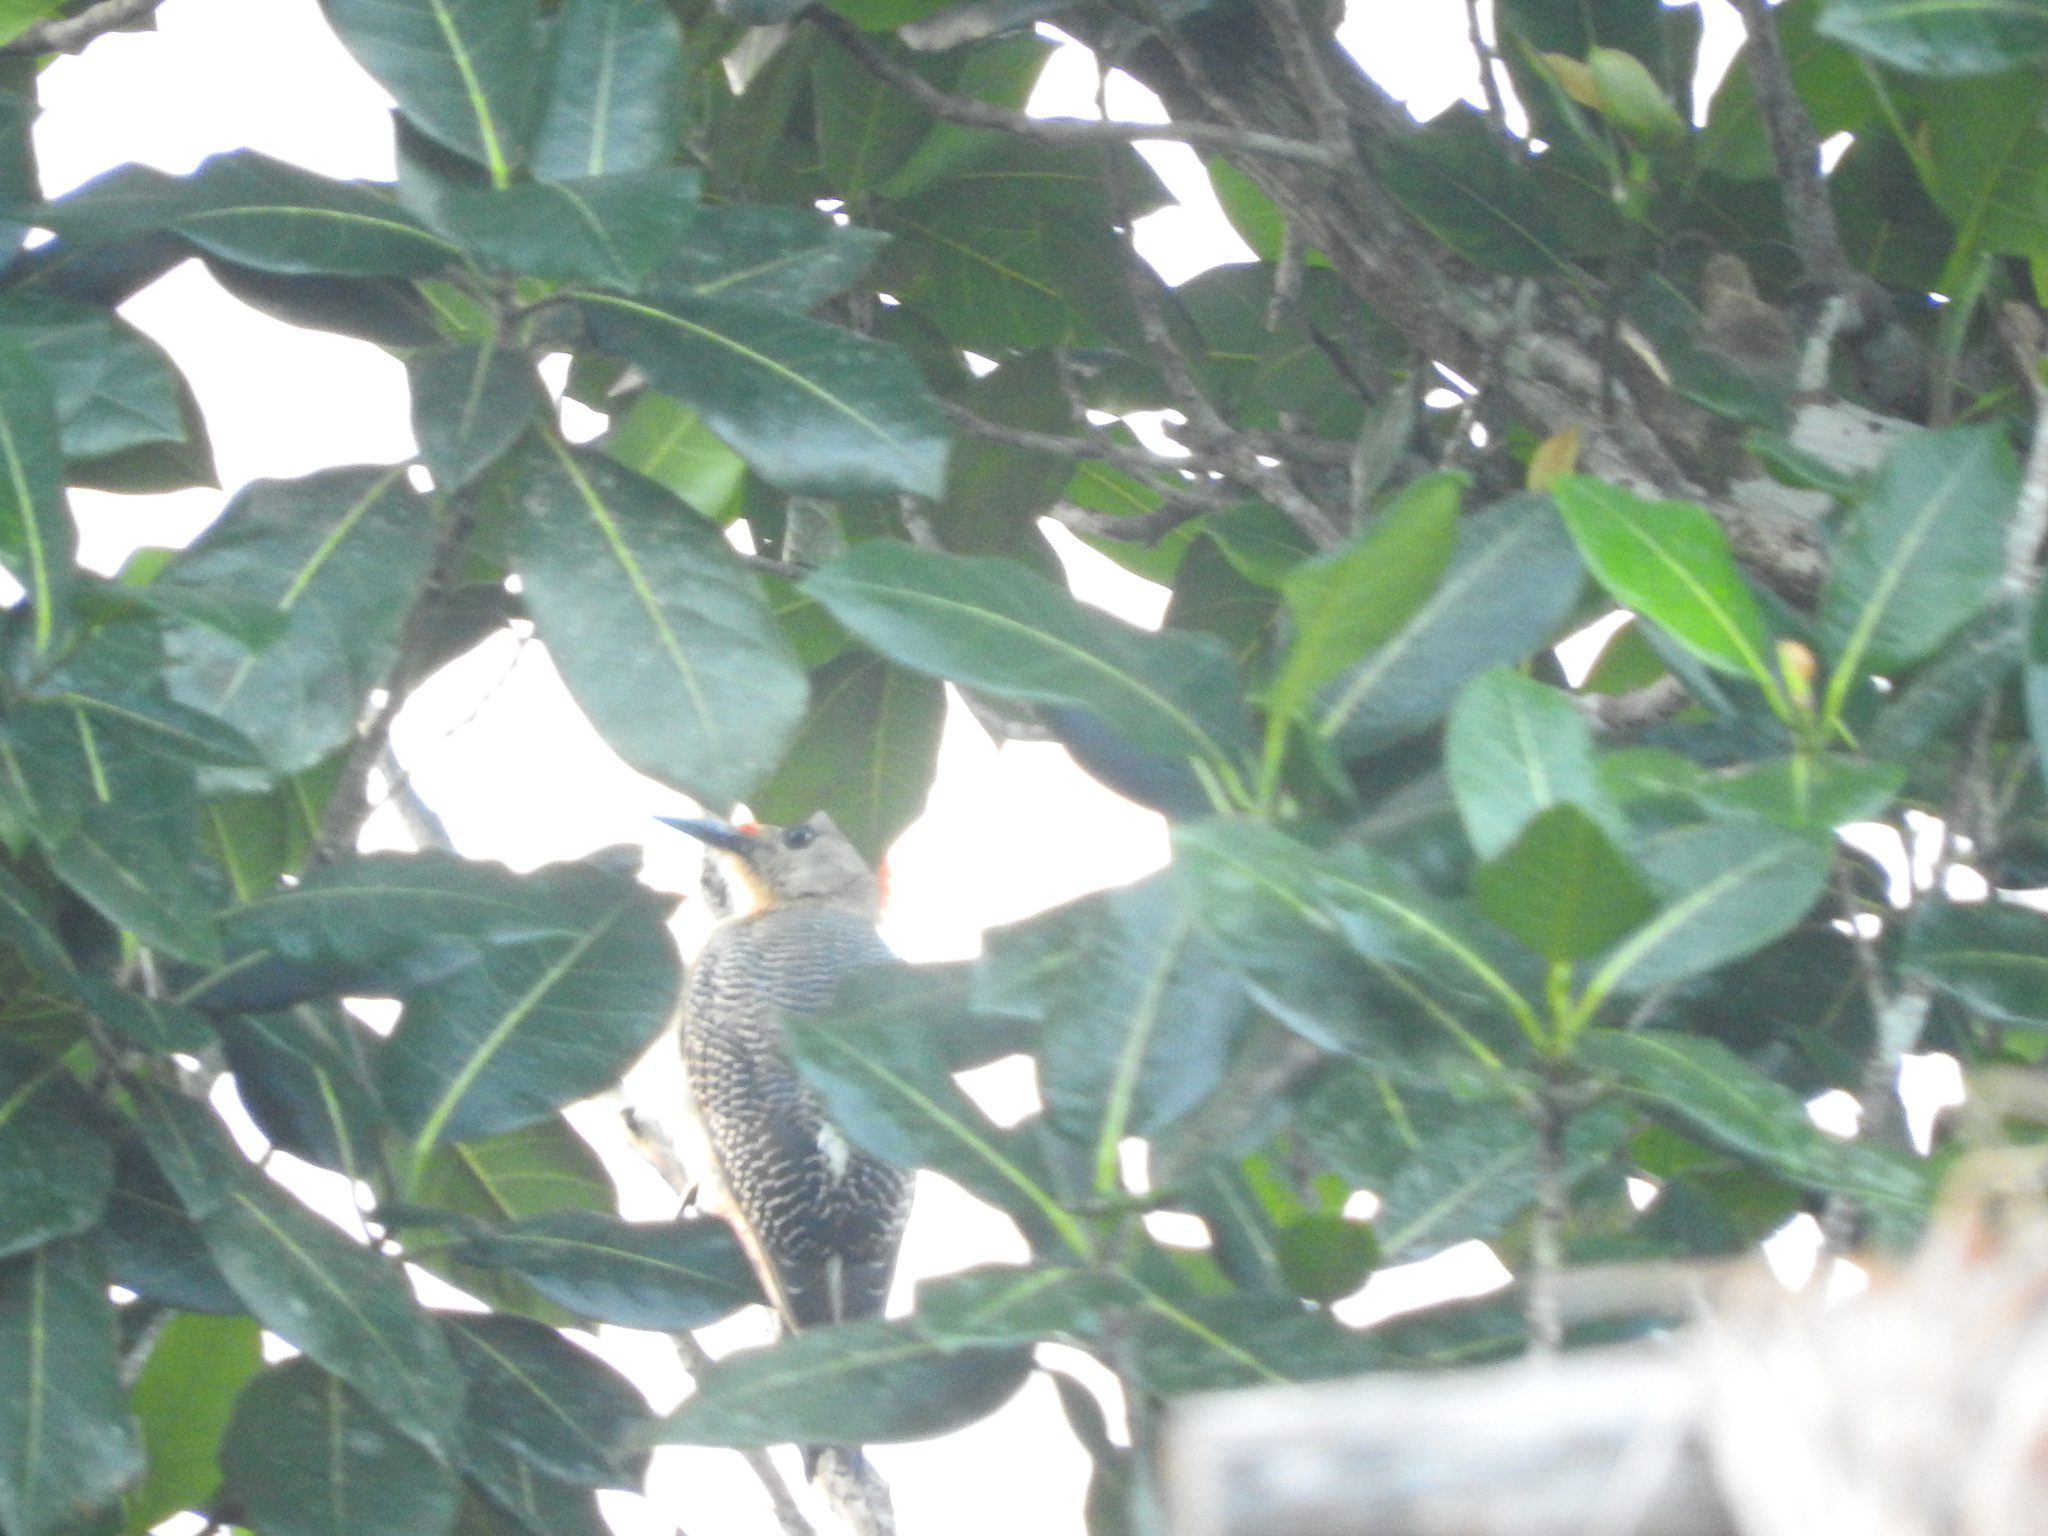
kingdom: Animalia
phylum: Chordata
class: Aves
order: Piciformes
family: Picidae
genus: Melanerpes
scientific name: Melanerpes aurifrons
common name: Golden-fronted woodpecker
